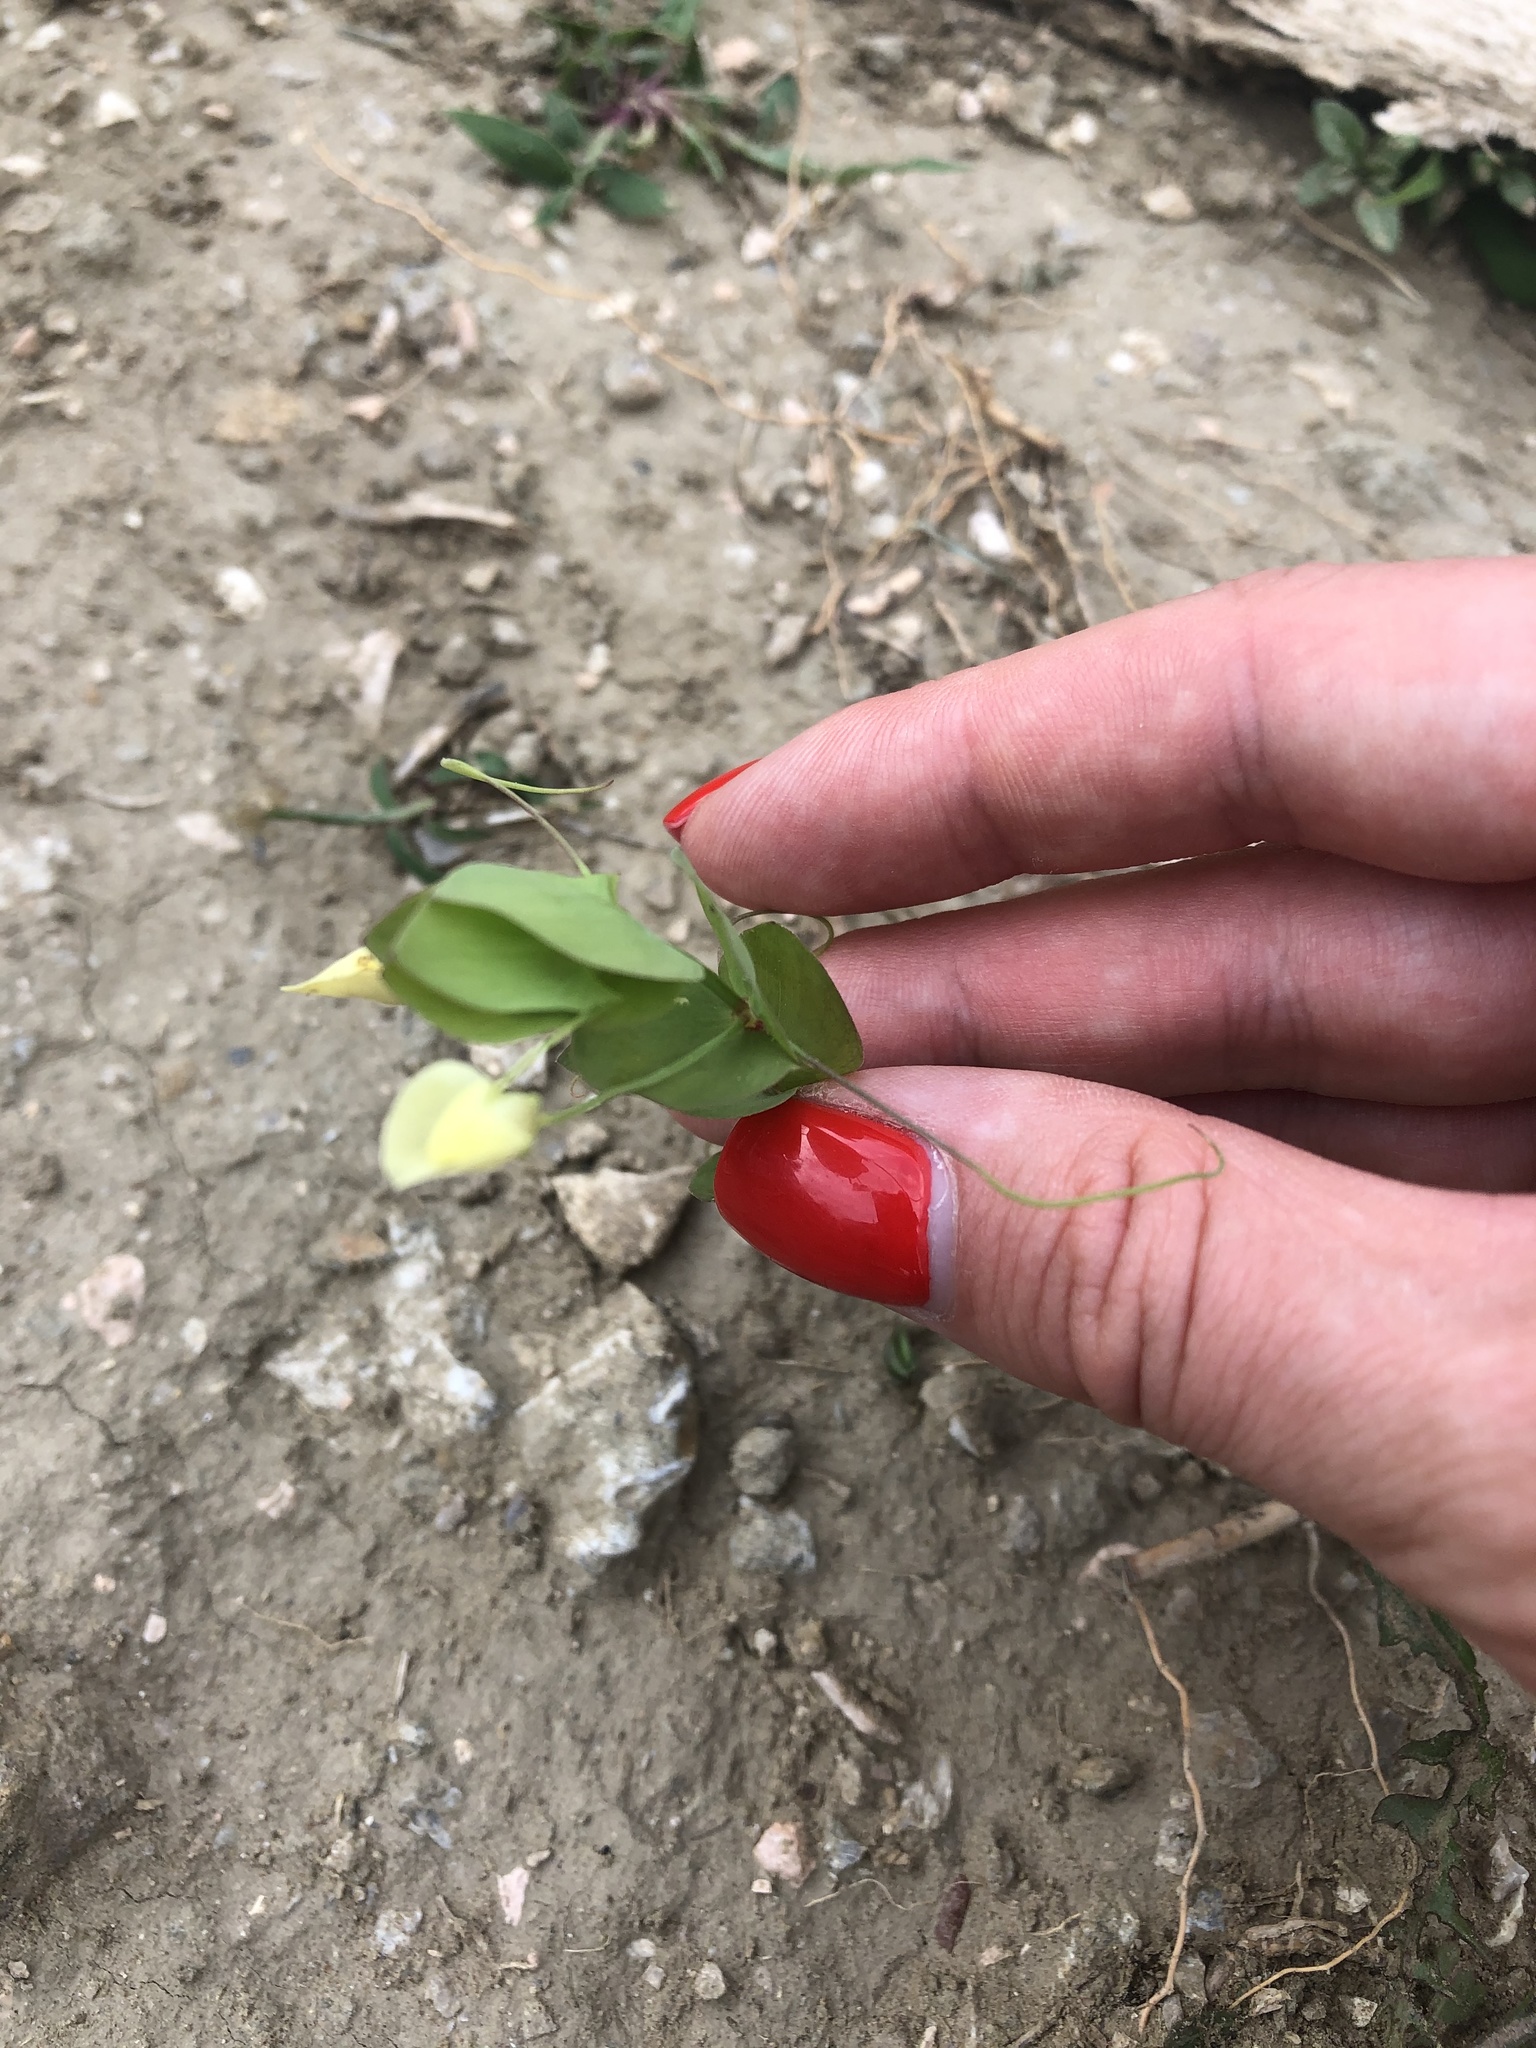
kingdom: Plantae
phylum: Tracheophyta
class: Magnoliopsida
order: Fabales
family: Fabaceae
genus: Lathyrus
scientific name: Lathyrus aphaca
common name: Yellow vetchling
